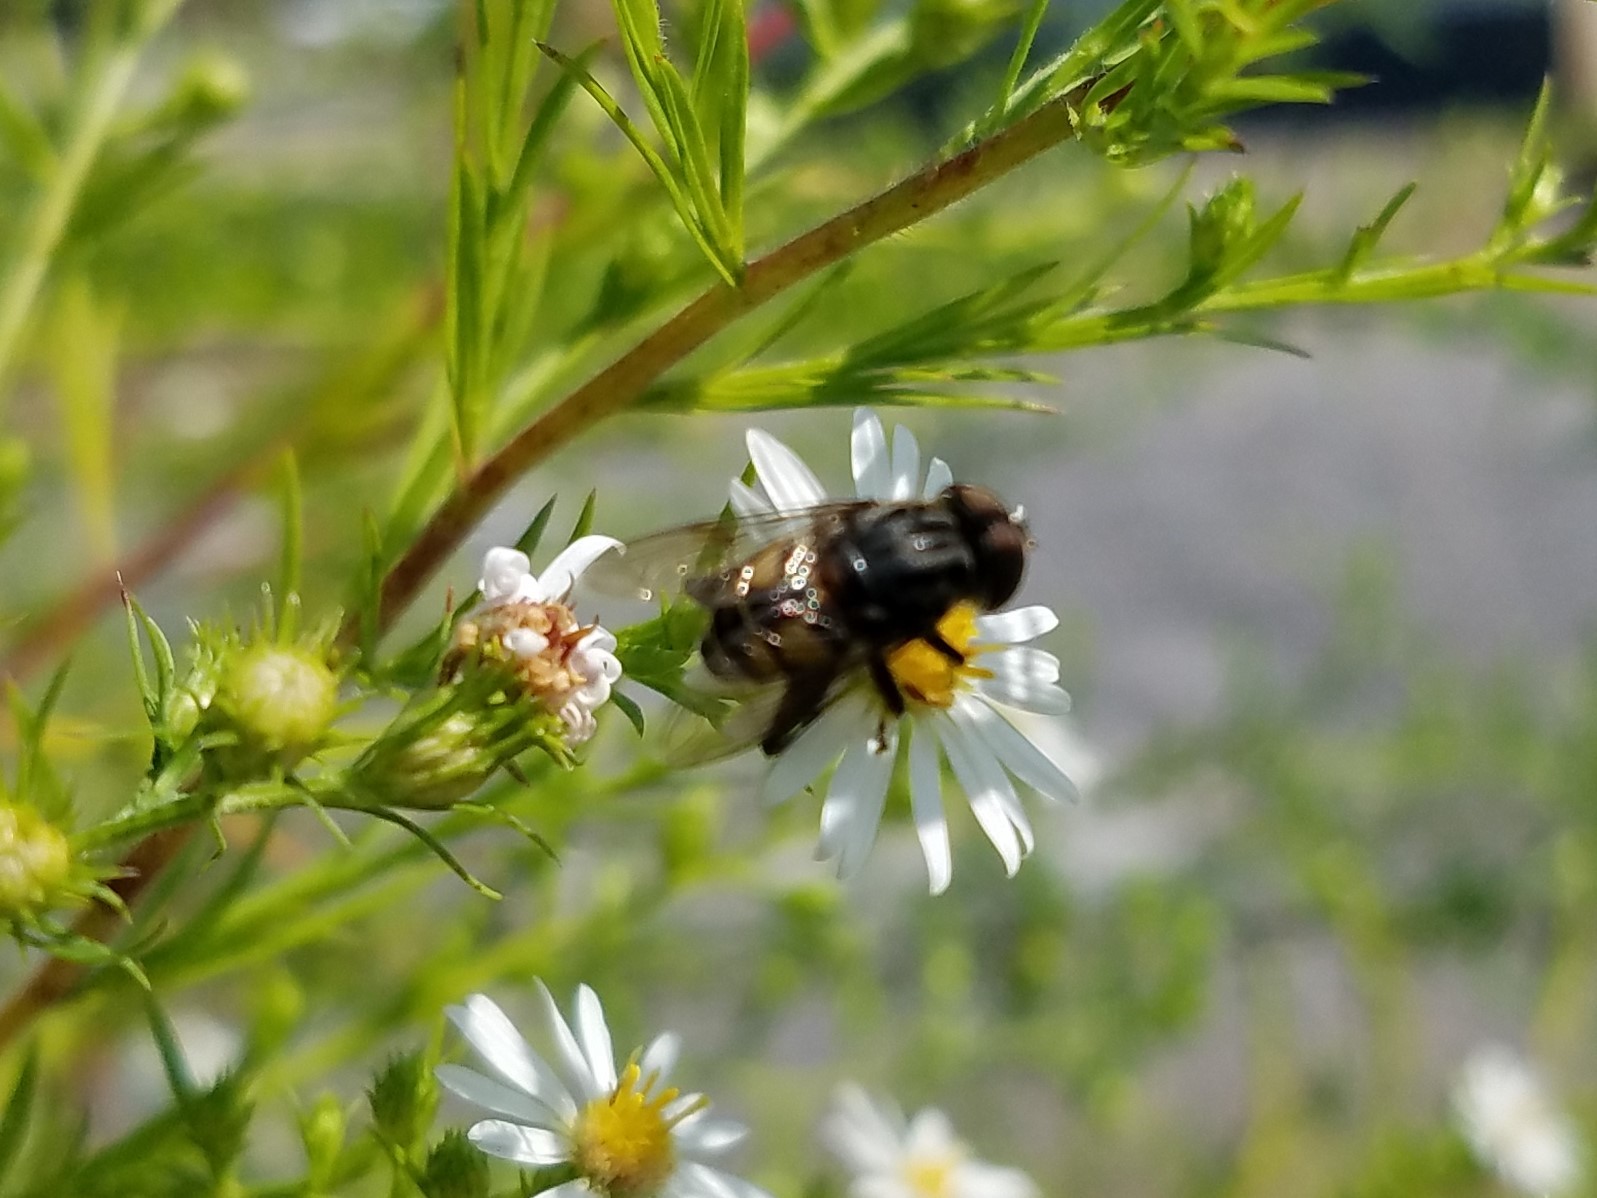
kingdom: Animalia
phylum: Arthropoda
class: Insecta
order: Diptera
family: Syrphidae
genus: Palpada
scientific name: Palpada furcata
